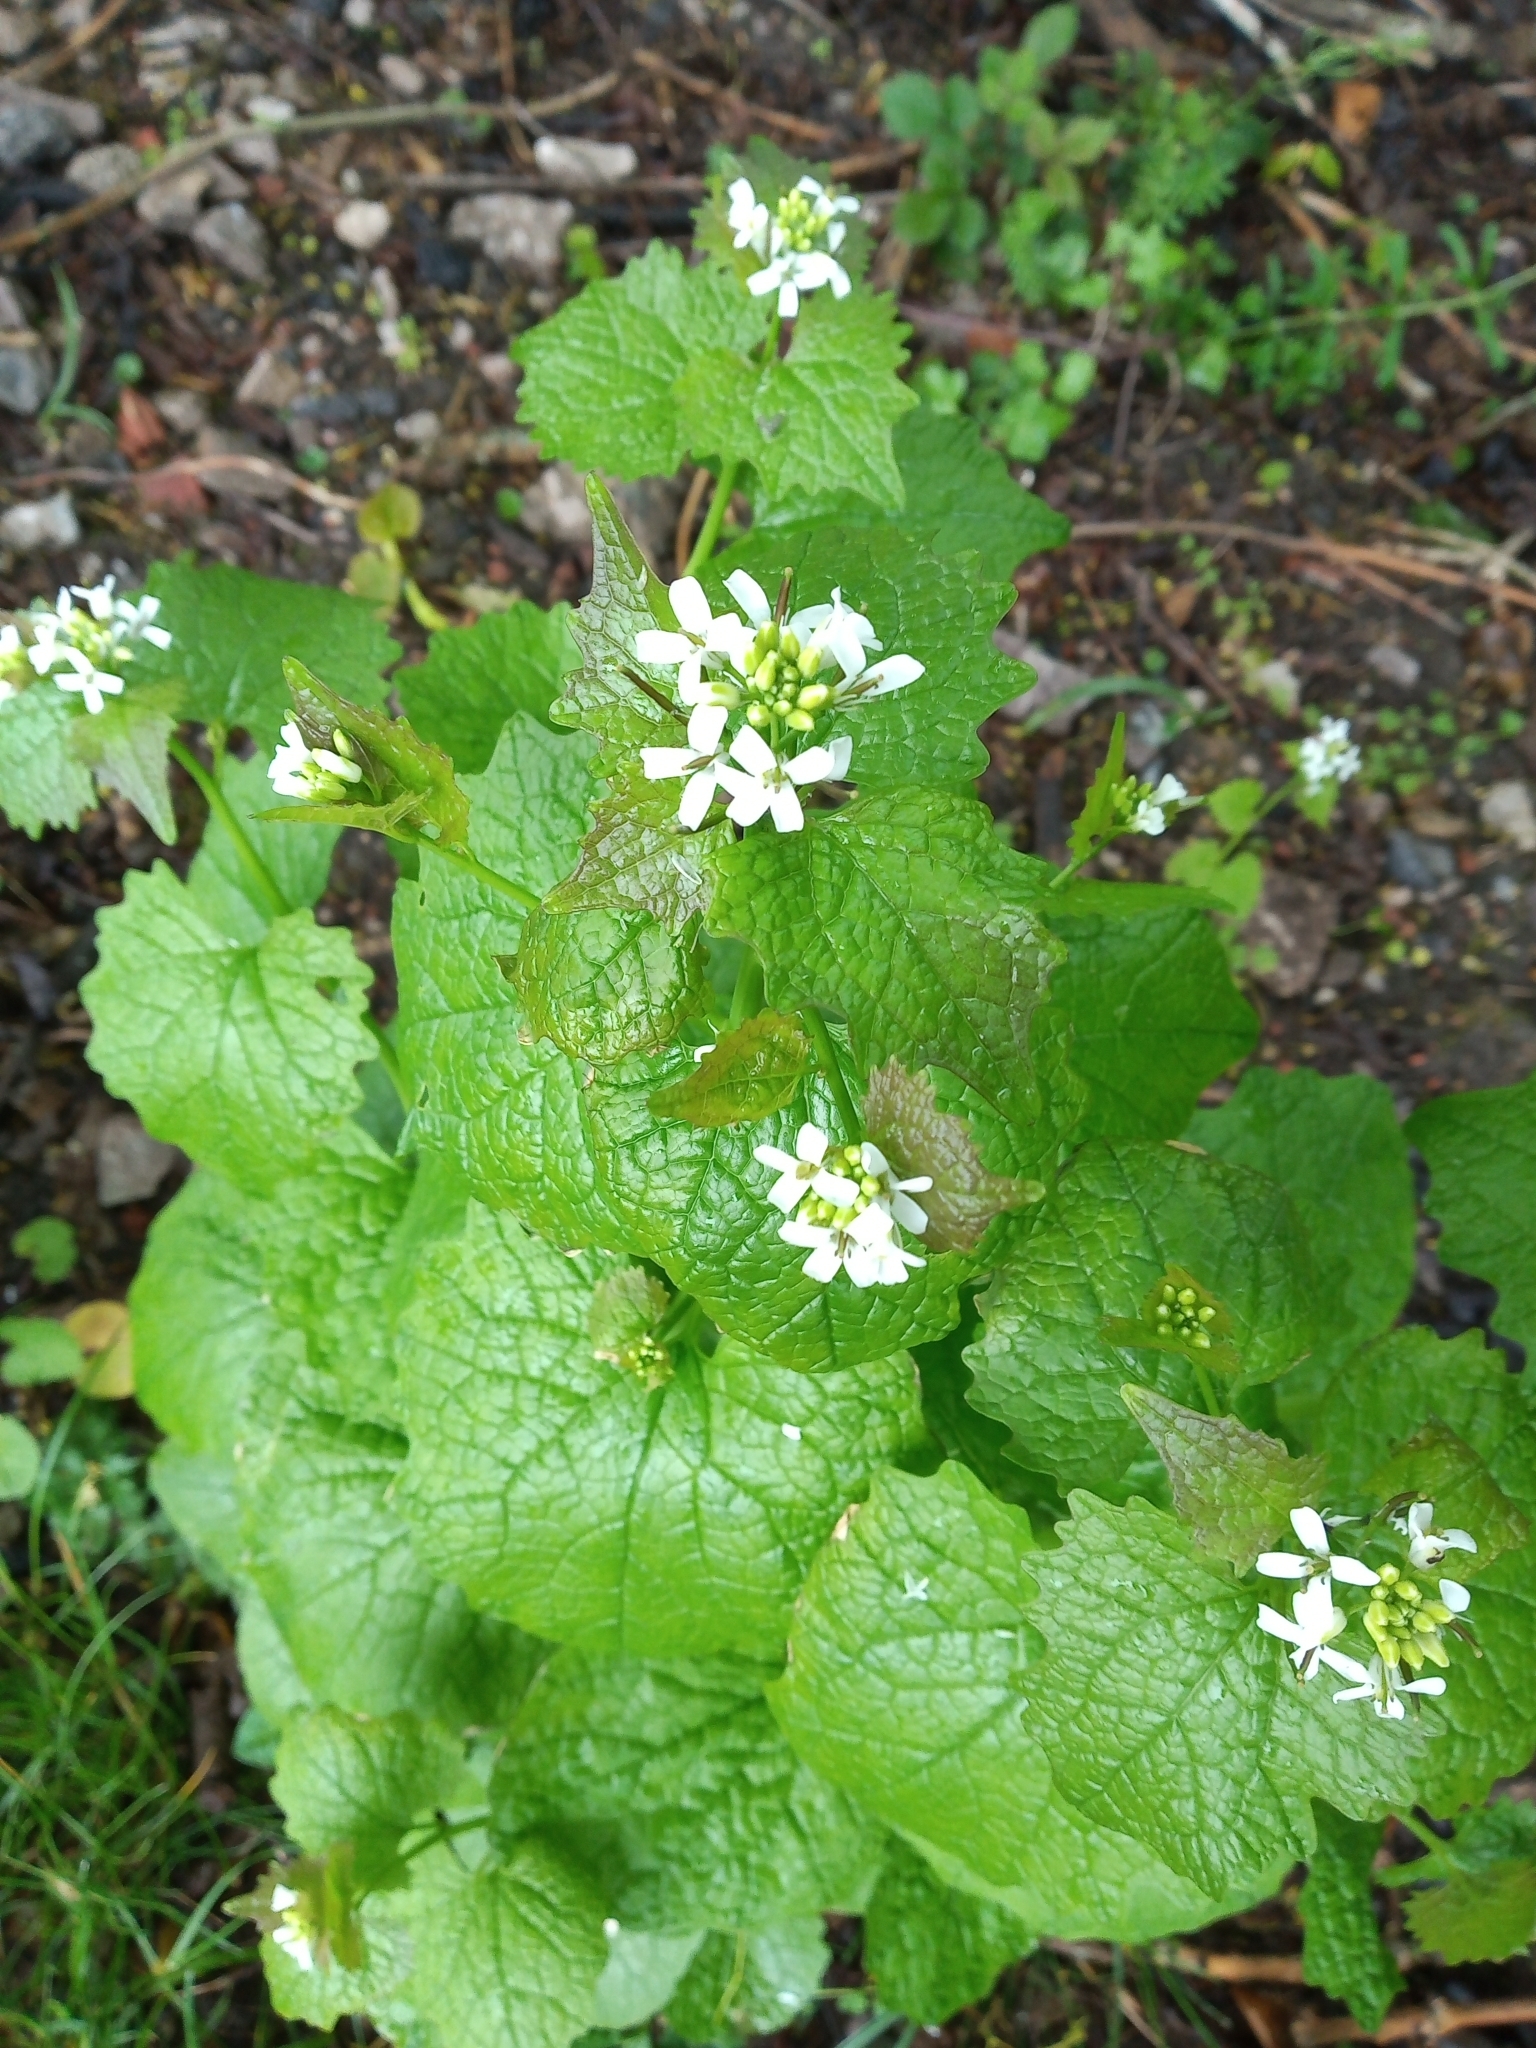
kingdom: Plantae
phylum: Tracheophyta
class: Magnoliopsida
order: Brassicales
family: Brassicaceae
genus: Alliaria
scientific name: Alliaria petiolata
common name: Garlic mustard
